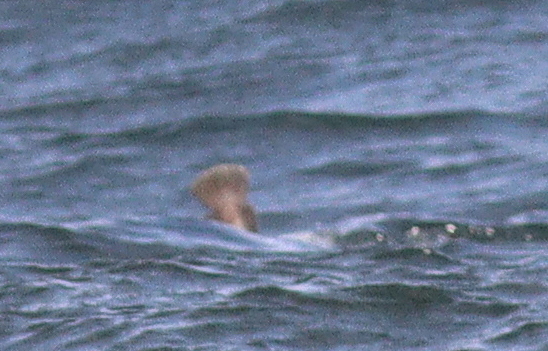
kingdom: Animalia
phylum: Chordata
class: Mammalia
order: Carnivora
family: Phocidae
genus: Halichoerus
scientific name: Halichoerus grypus
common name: Grey seal
